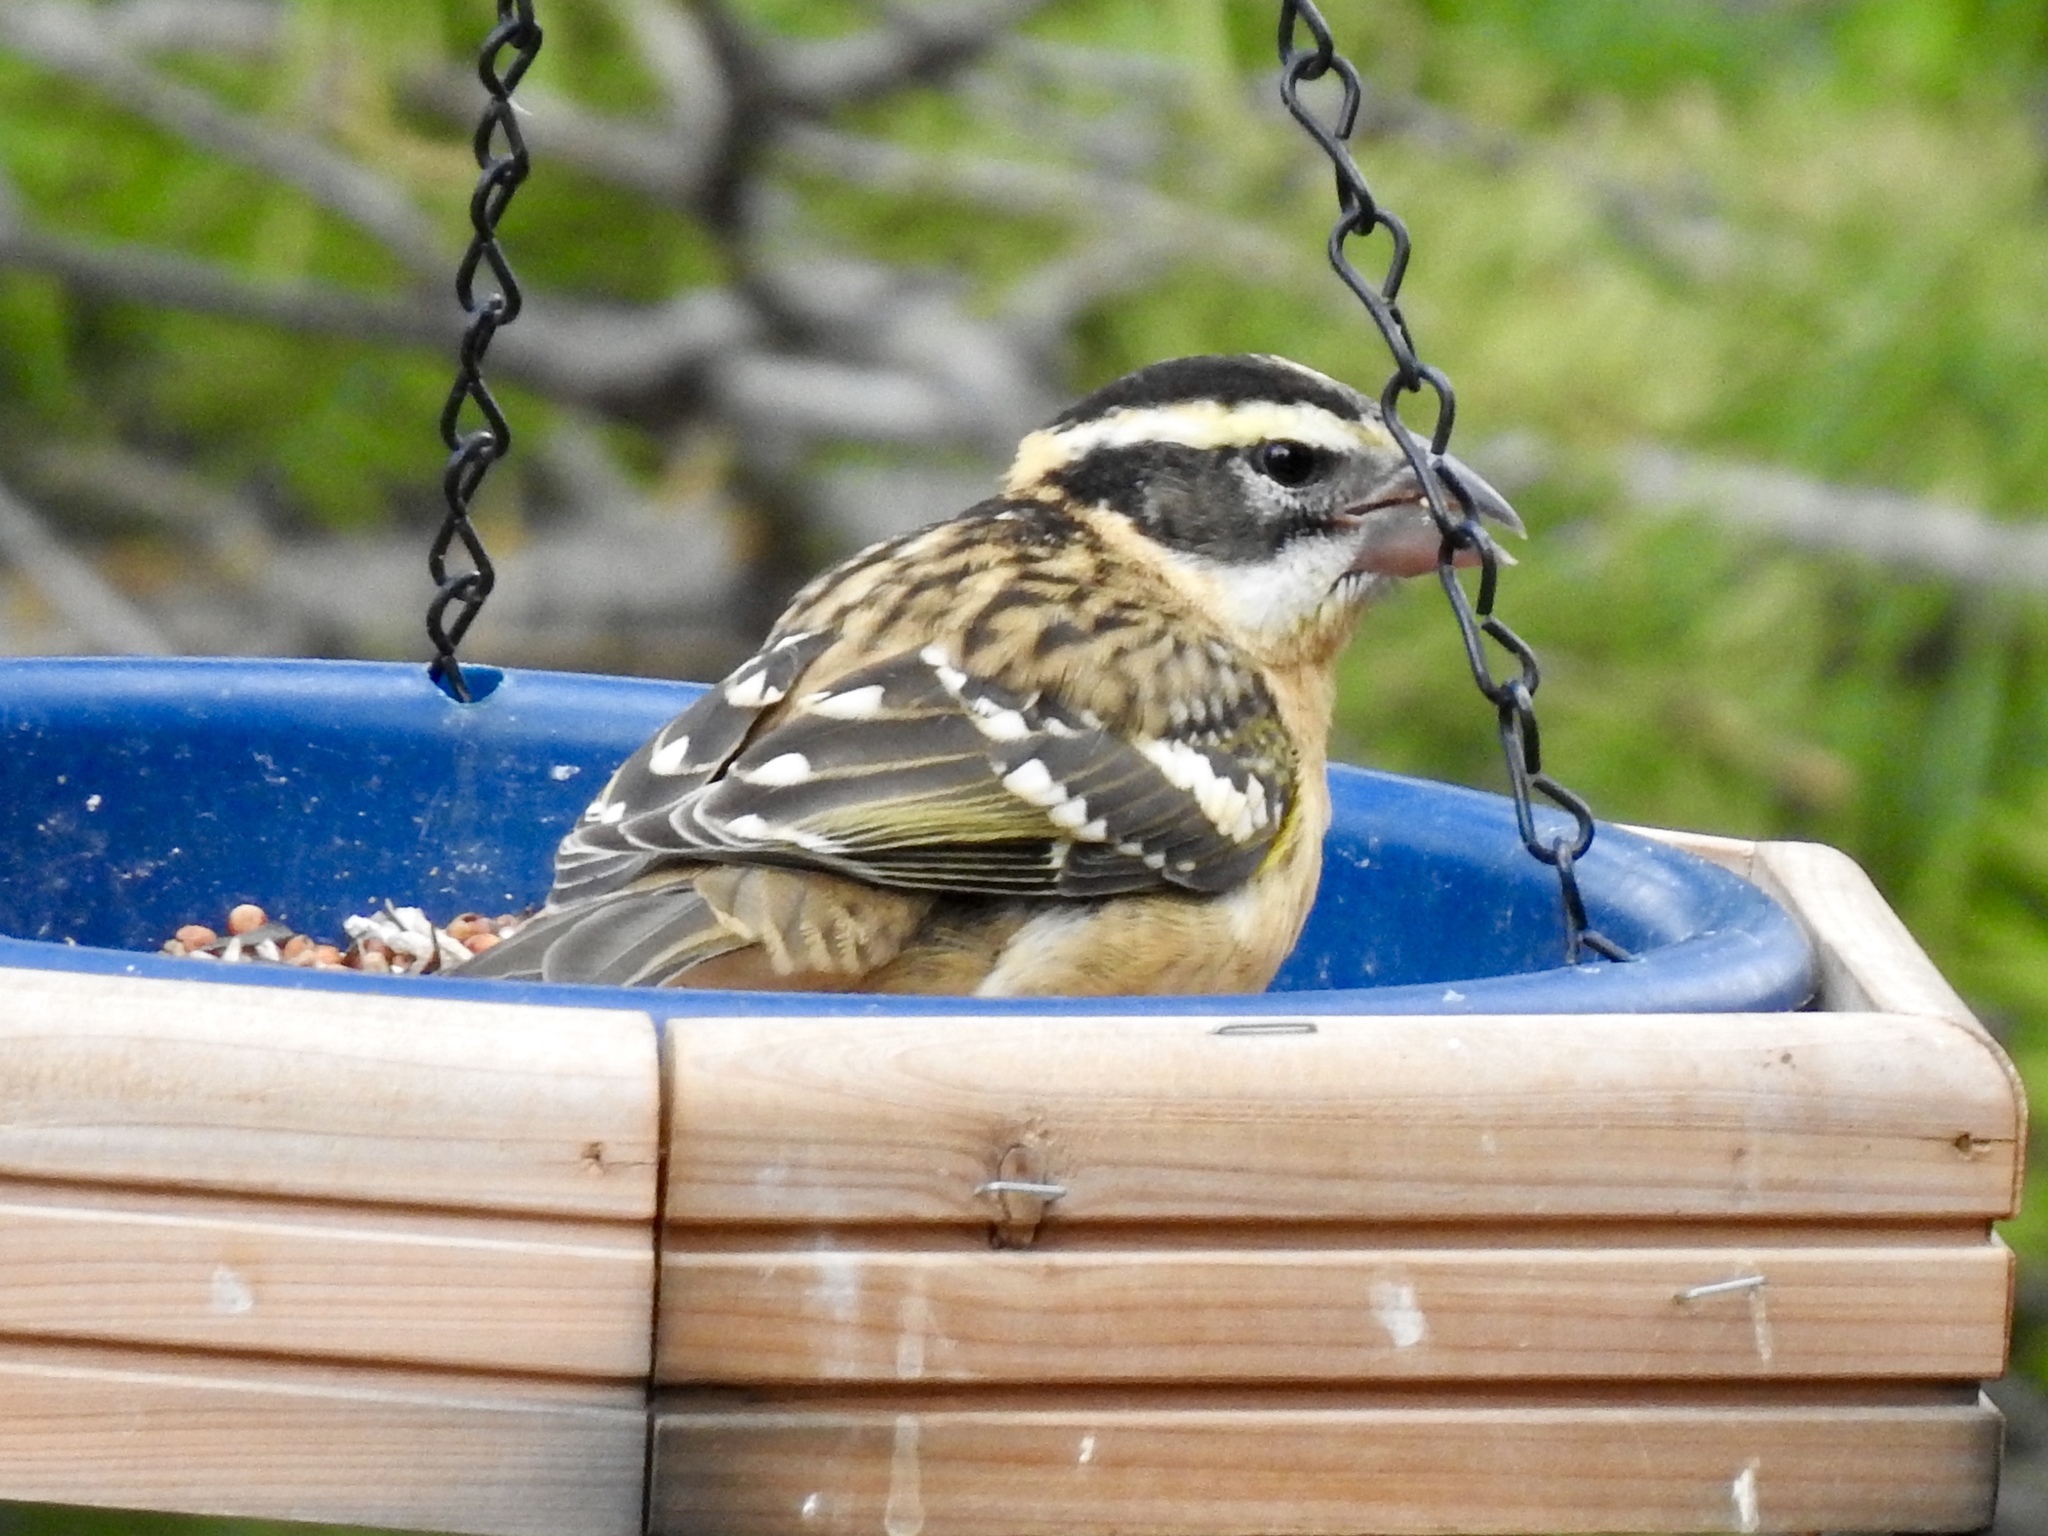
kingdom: Animalia
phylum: Chordata
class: Aves
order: Passeriformes
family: Cardinalidae
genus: Pheucticus
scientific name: Pheucticus melanocephalus
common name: Black-headed grosbeak
